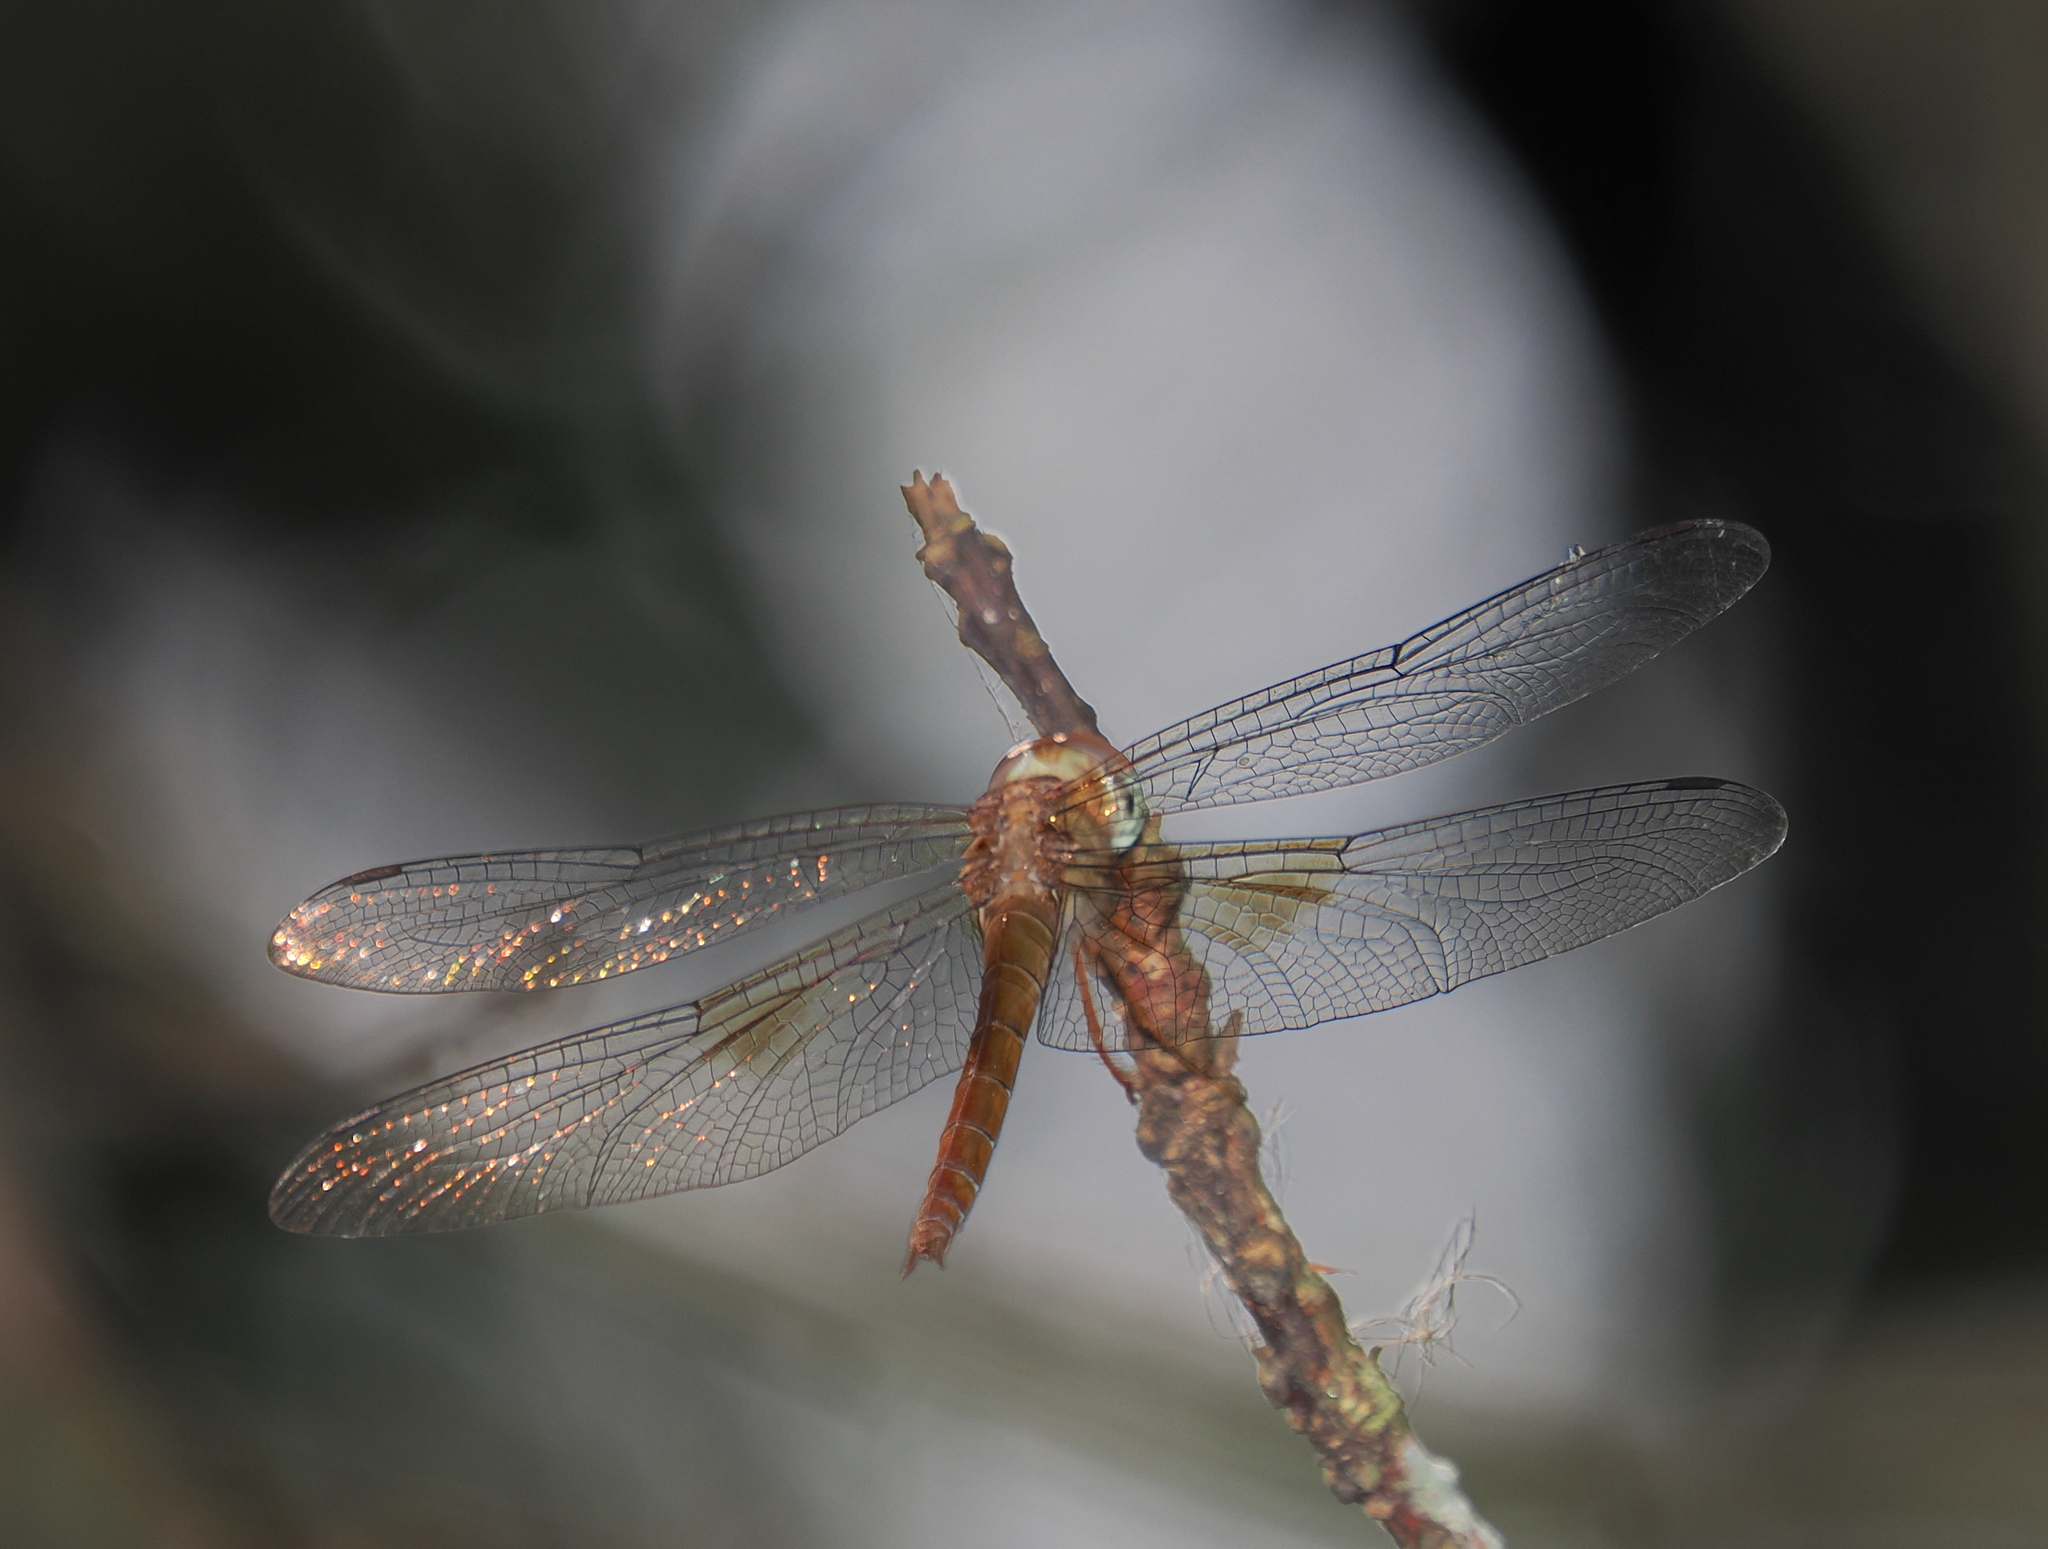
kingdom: Animalia
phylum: Arthropoda
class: Insecta
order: Odonata
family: Libellulidae
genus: Tholymis
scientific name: Tholymis tillarga
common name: Coral-tailed cloud wing
